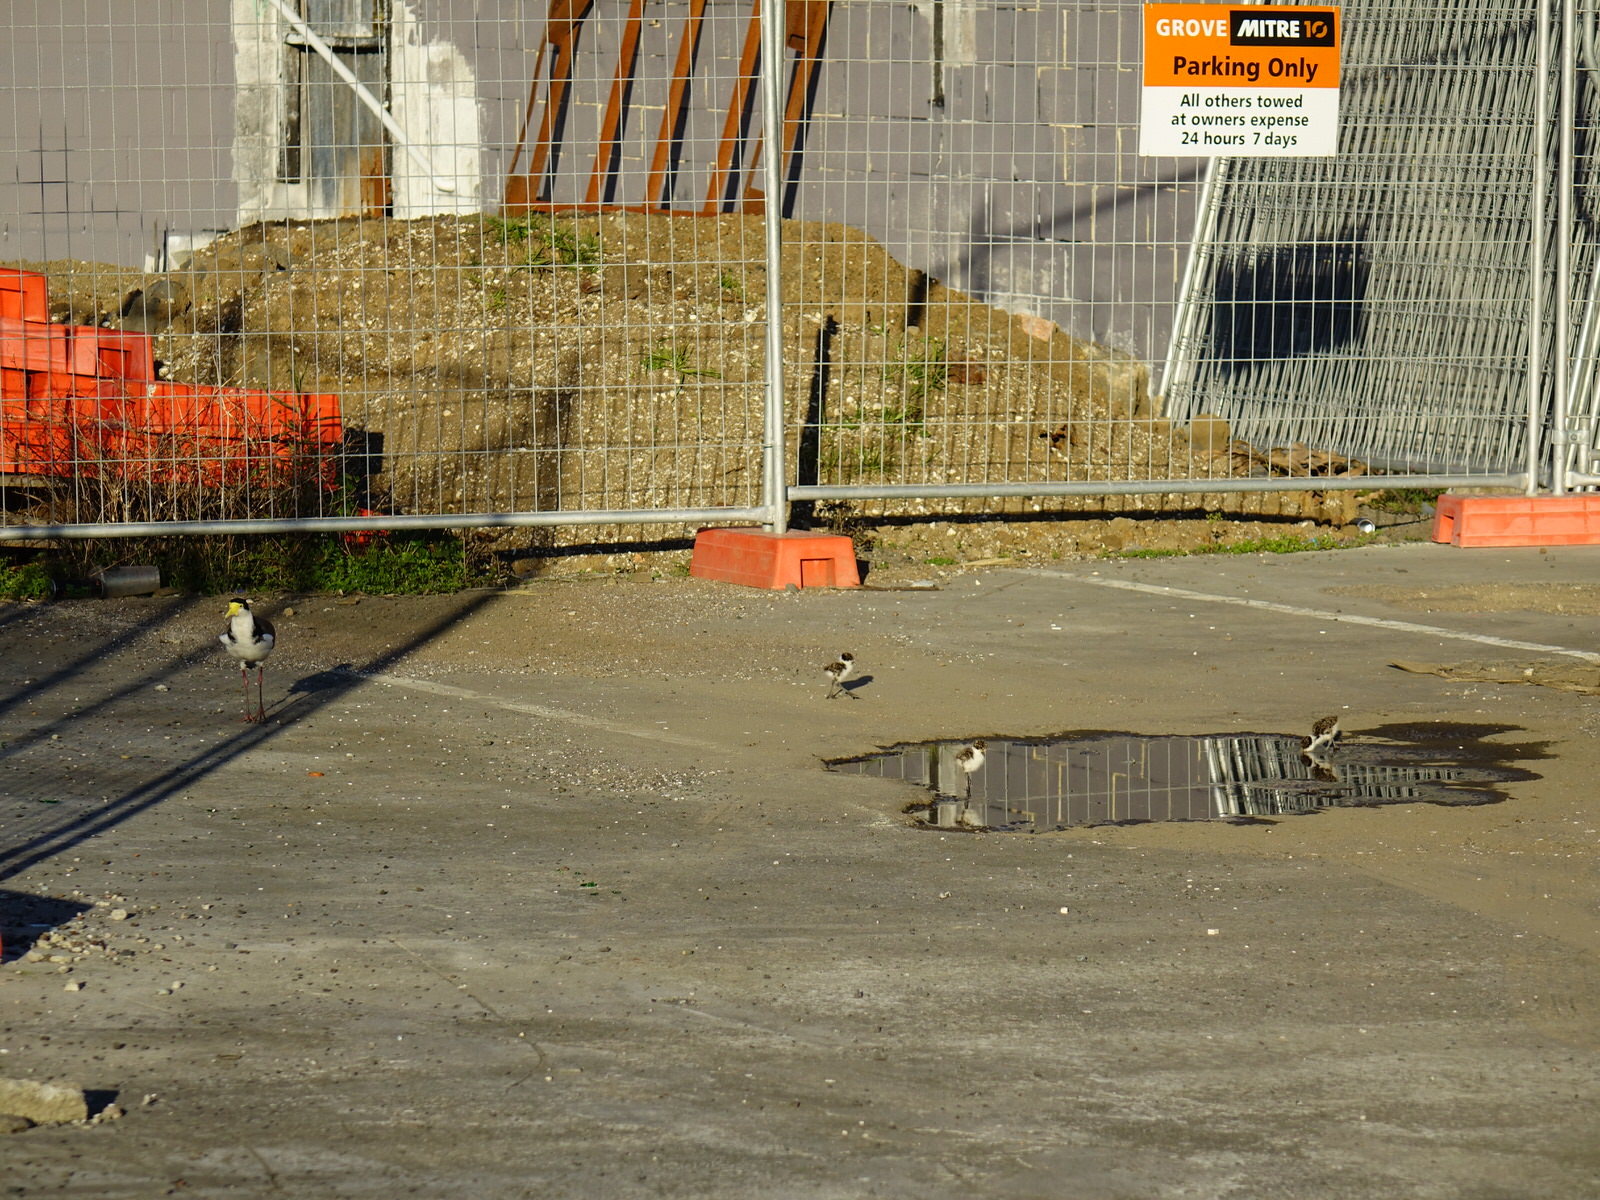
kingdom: Animalia
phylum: Chordata
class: Aves
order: Charadriiformes
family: Charadriidae
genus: Vanellus
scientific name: Vanellus miles
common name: Masked lapwing
